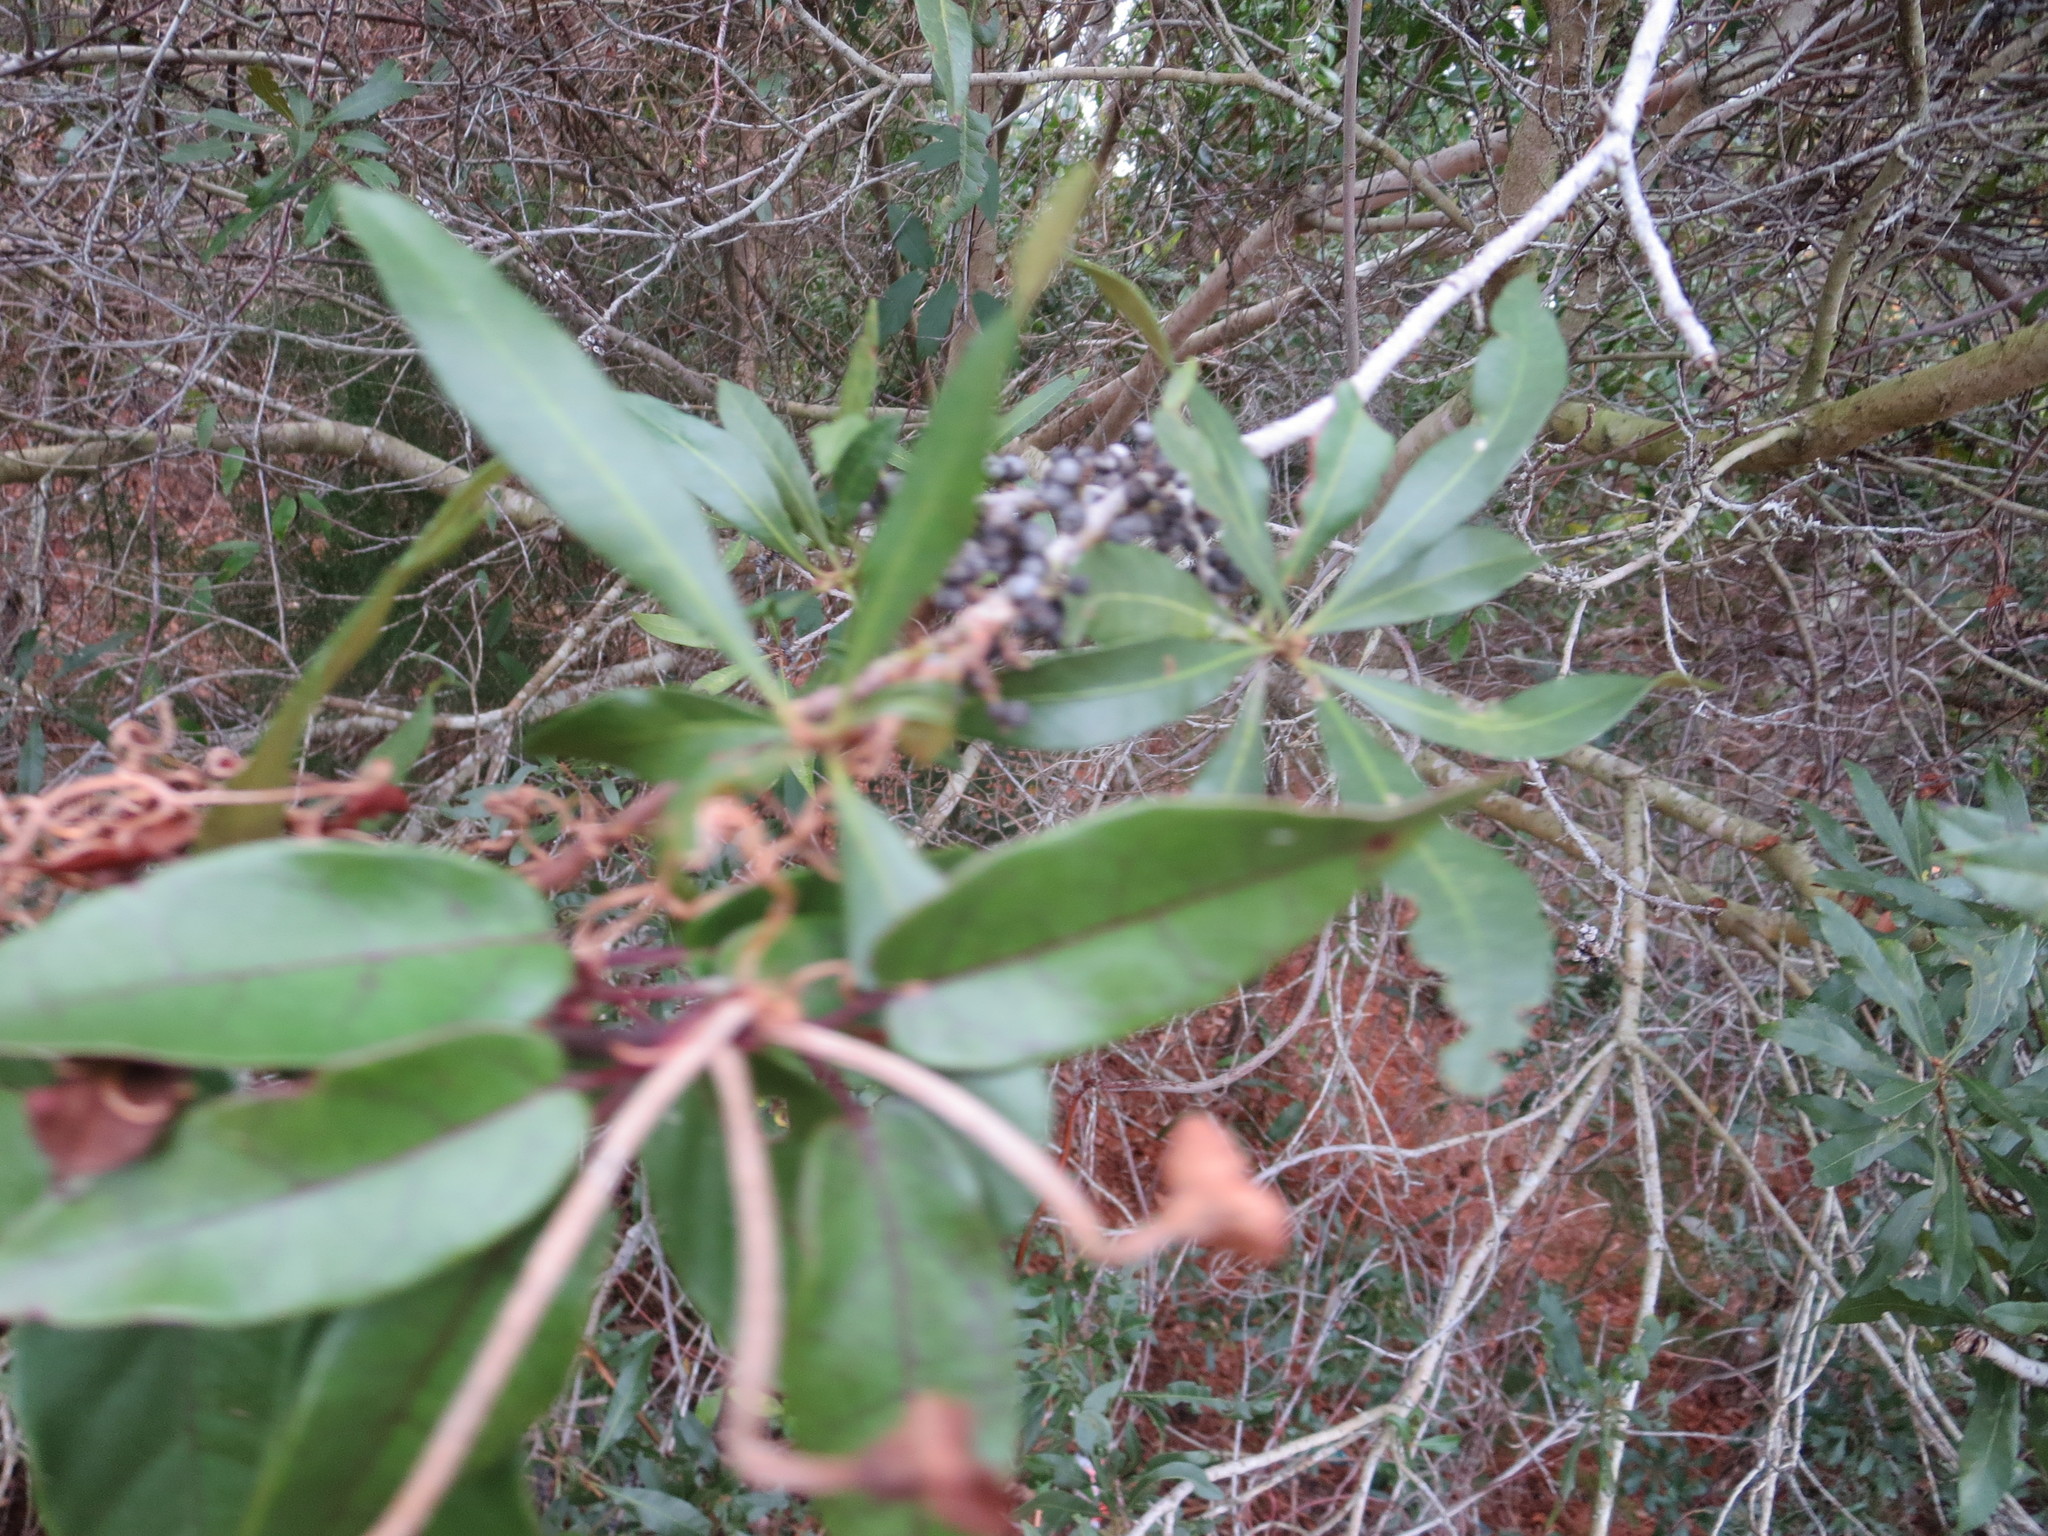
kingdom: Plantae
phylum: Tracheophyta
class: Magnoliopsida
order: Fagales
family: Myricaceae
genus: Morella
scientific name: Morella cerifera
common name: Wax myrtle
